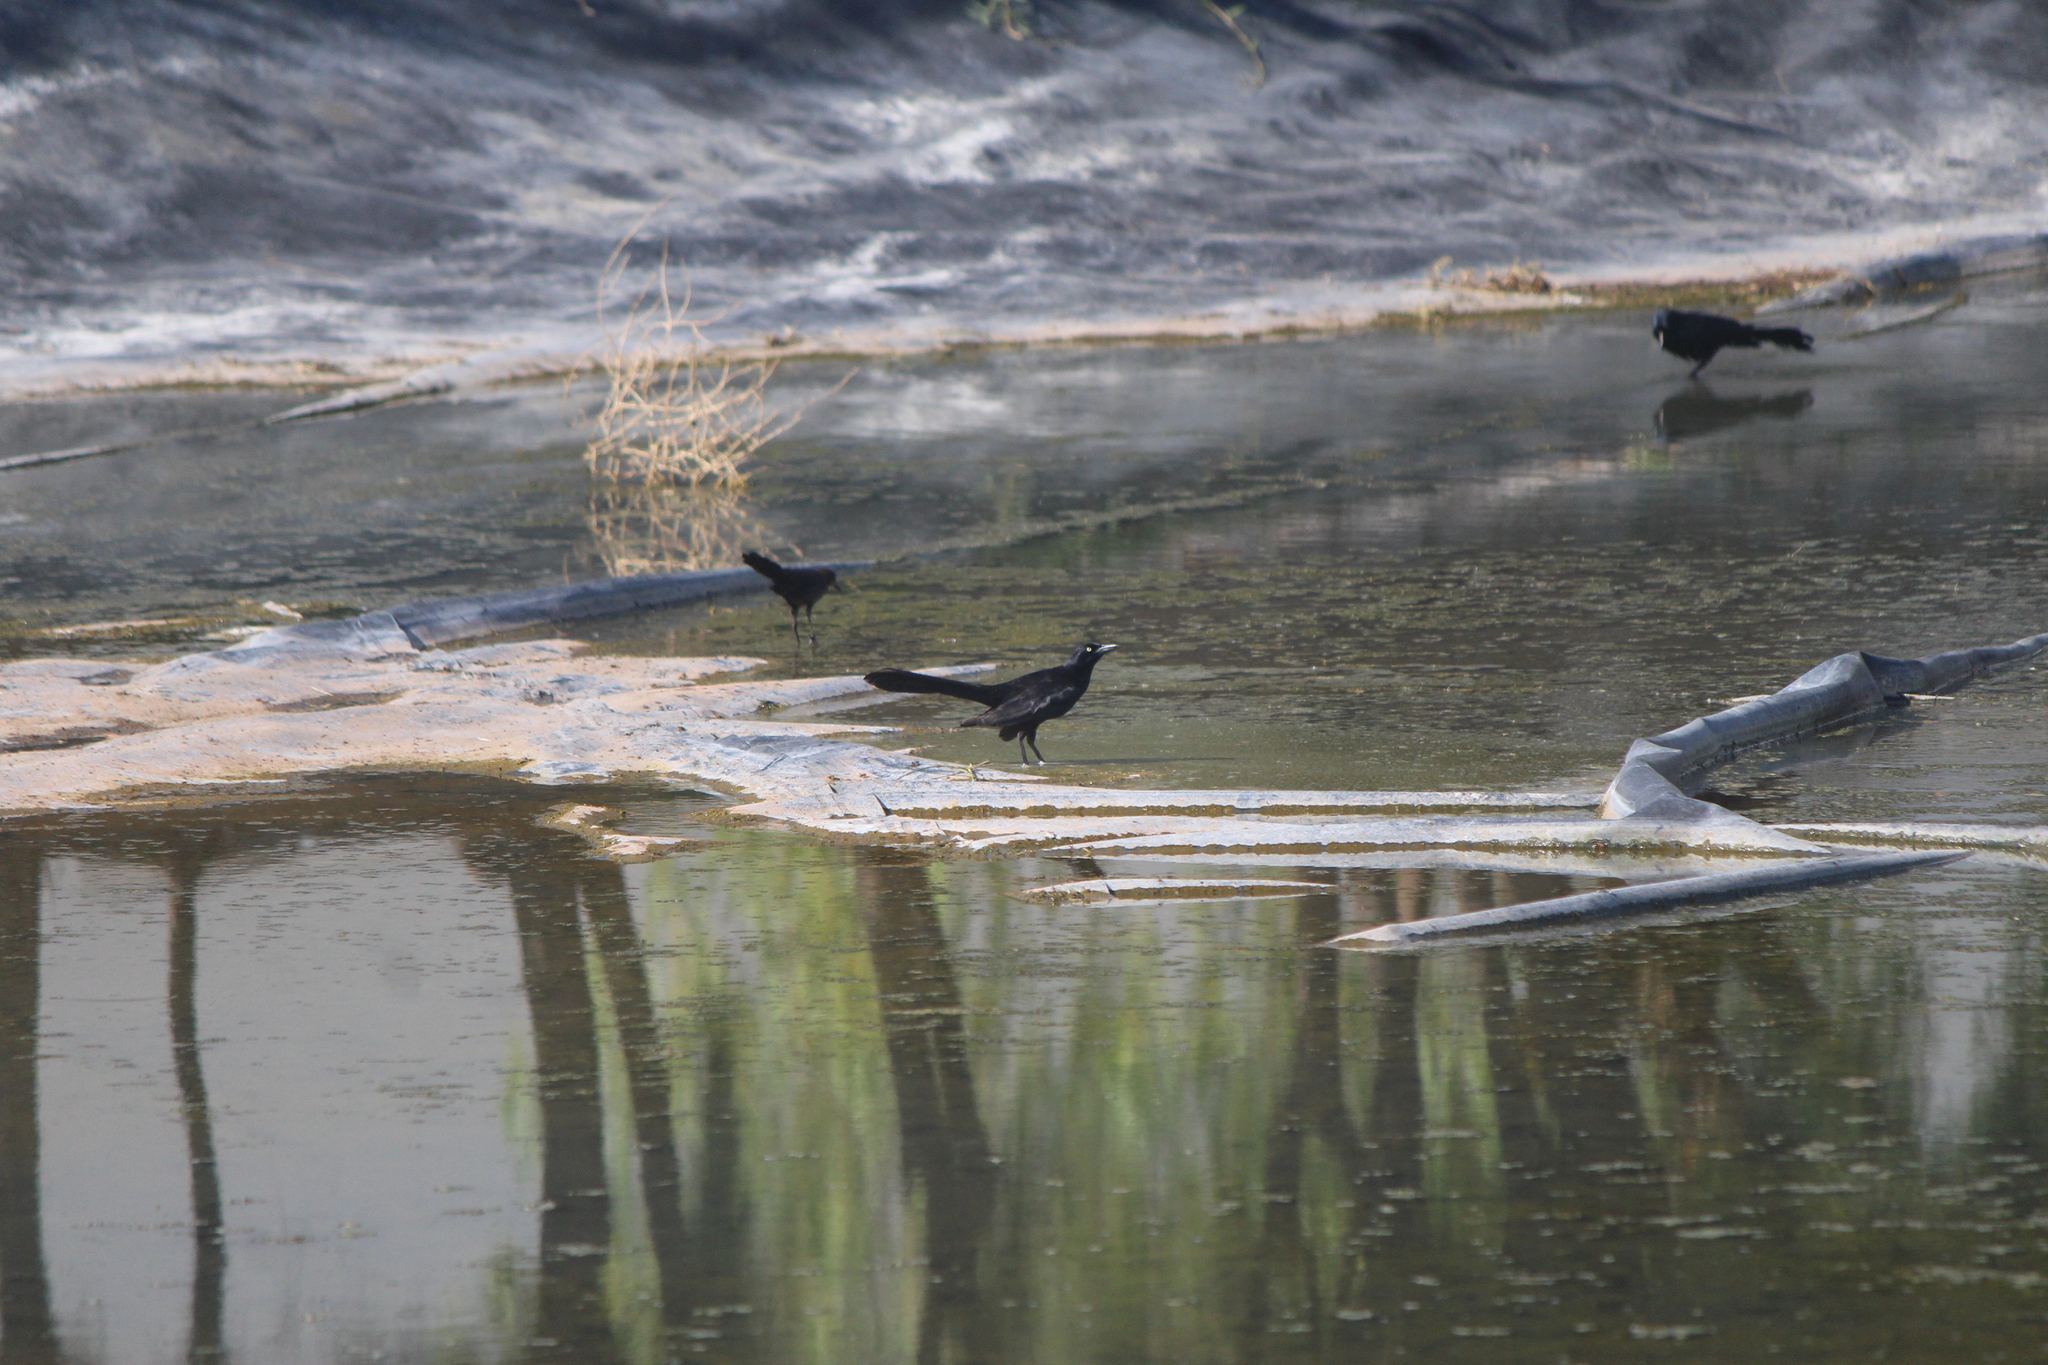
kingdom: Animalia
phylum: Chordata
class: Aves
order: Passeriformes
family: Icteridae
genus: Quiscalus
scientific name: Quiscalus mexicanus
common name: Great-tailed grackle
